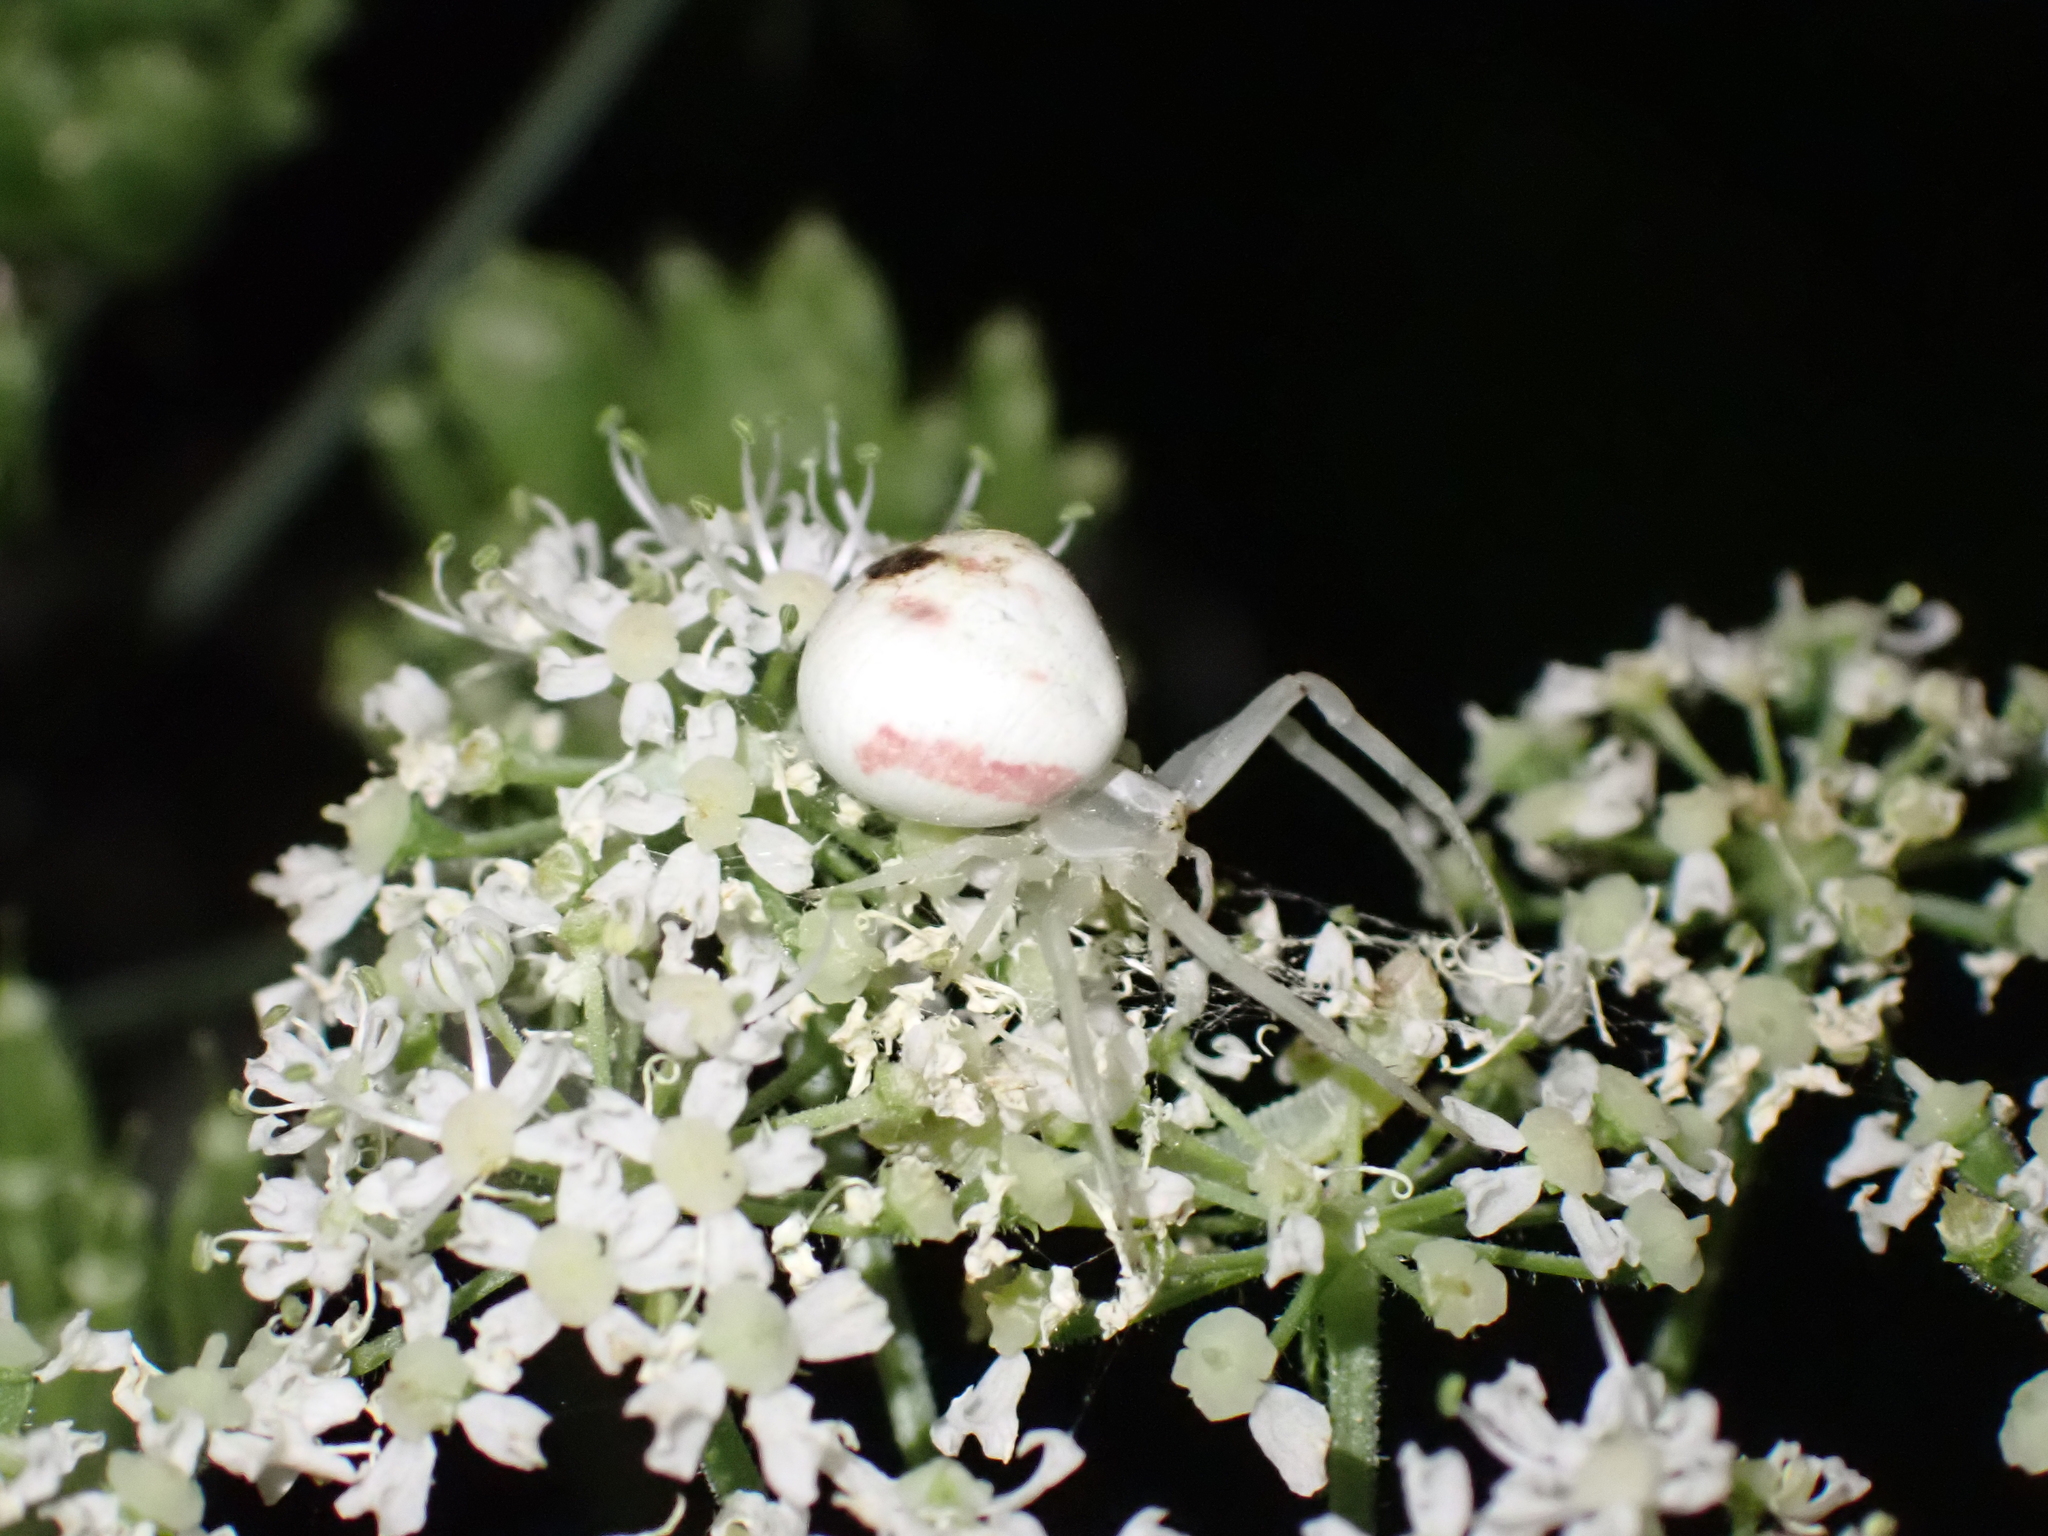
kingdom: Animalia
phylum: Arthropoda
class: Arachnida
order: Araneae
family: Thomisidae
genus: Misumena
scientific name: Misumena vatia
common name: Goldenrod crab spider
